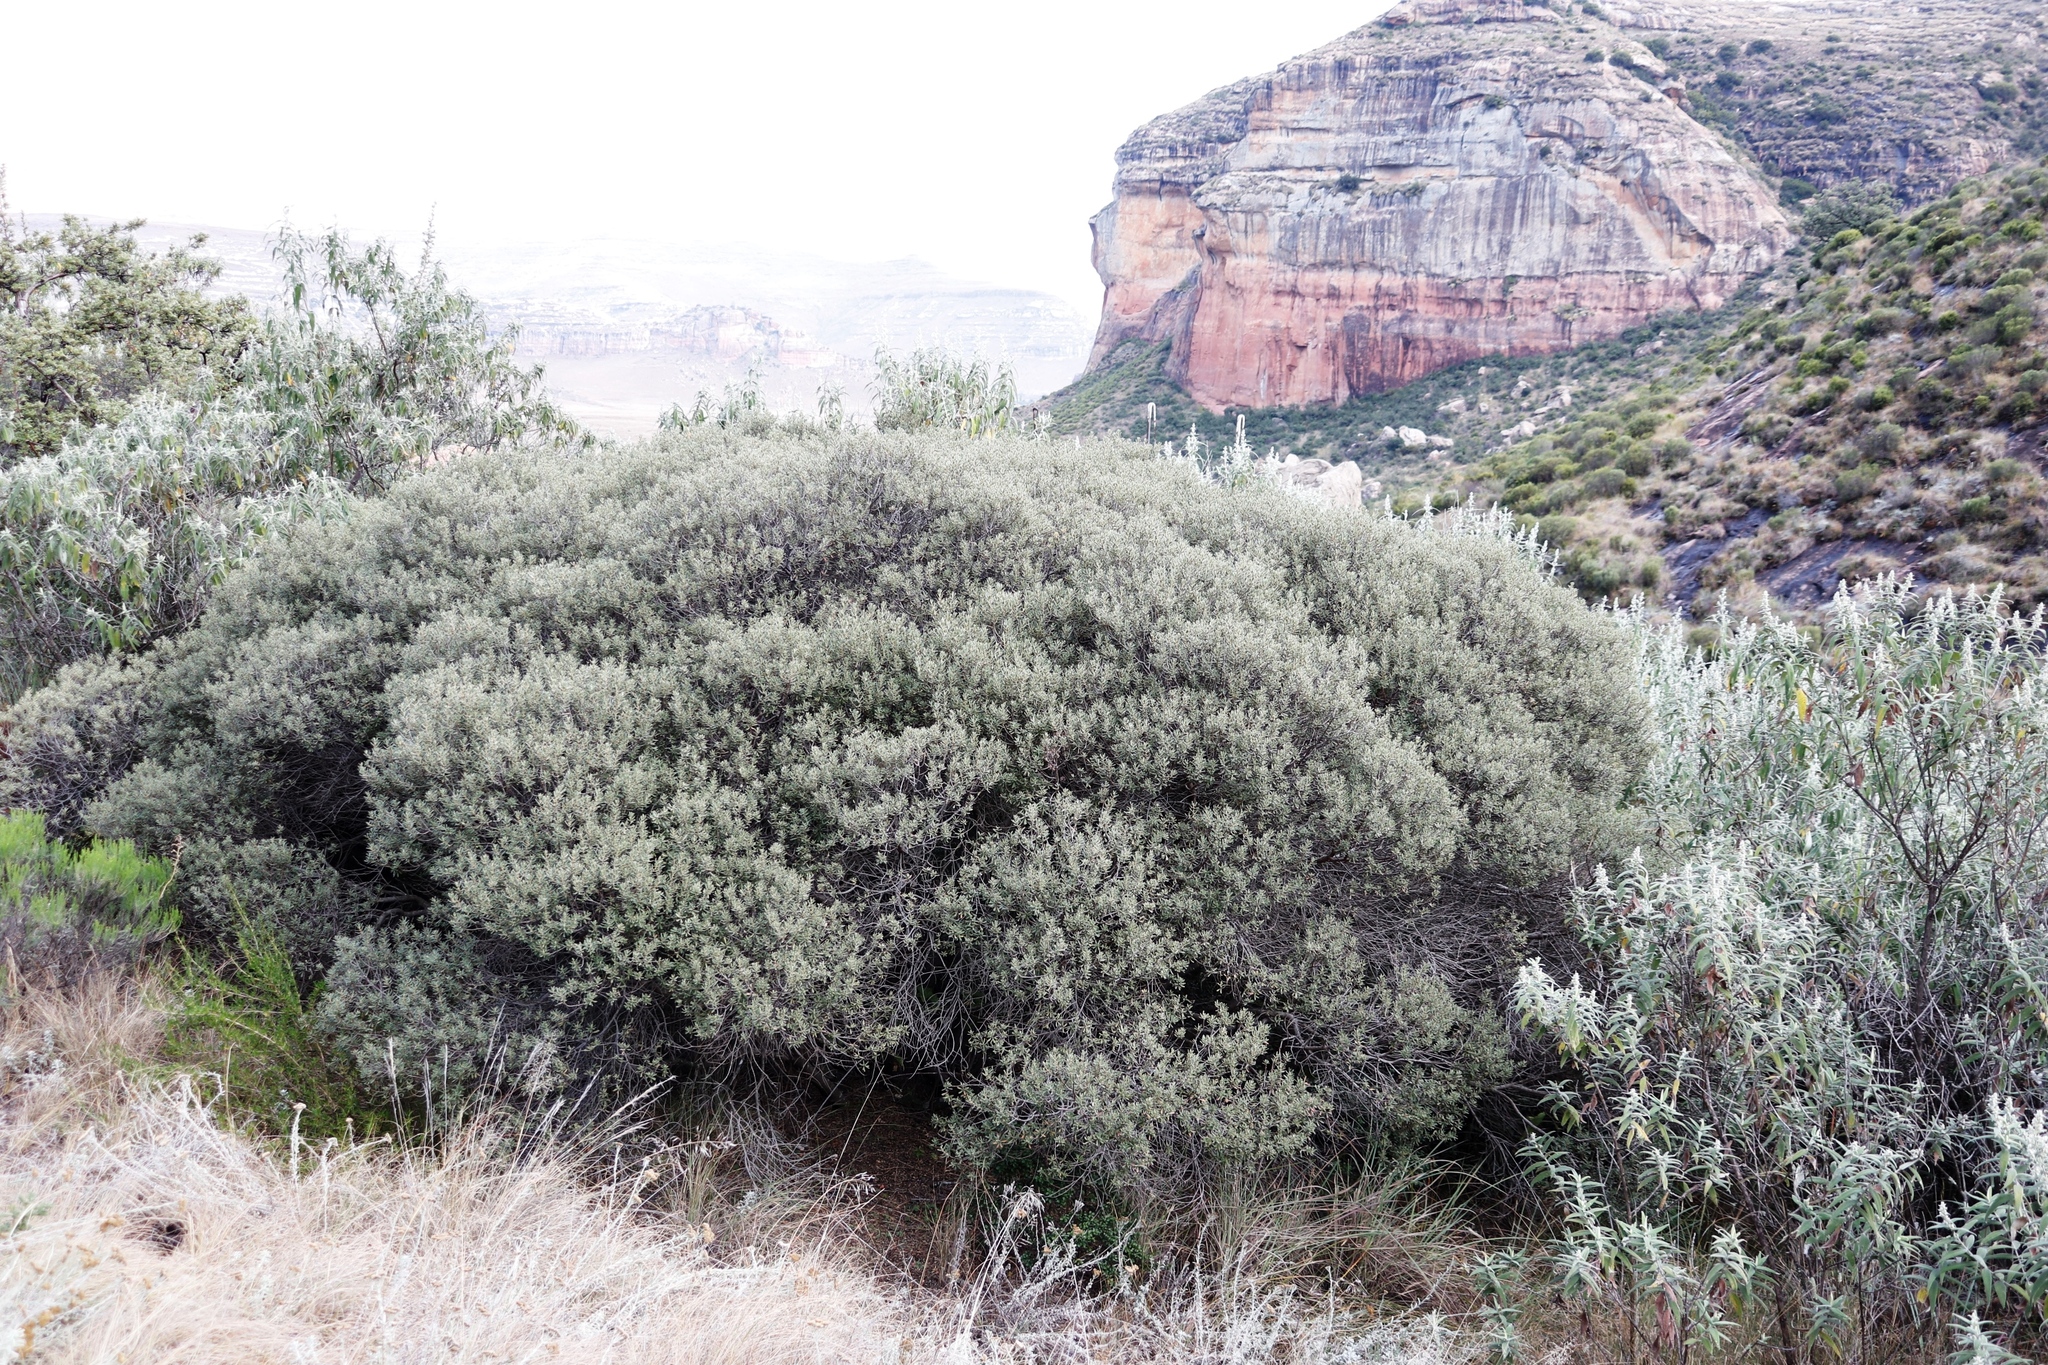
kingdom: Plantae
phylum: Tracheophyta
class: Magnoliopsida
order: Ericales
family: Ebenaceae
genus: Diospyros
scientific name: Diospyros pubescens
